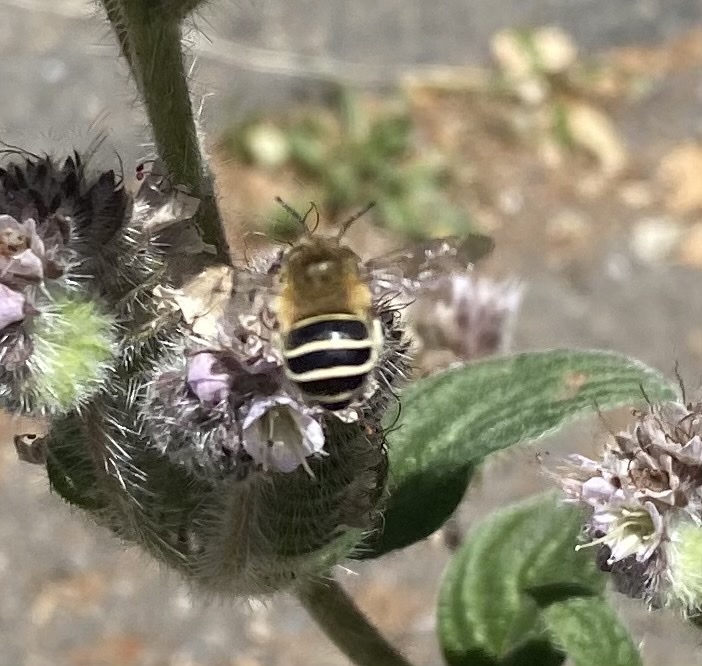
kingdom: Animalia
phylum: Arthropoda
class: Insecta
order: Hymenoptera
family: Apidae
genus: Anthophora
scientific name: Anthophora californica
